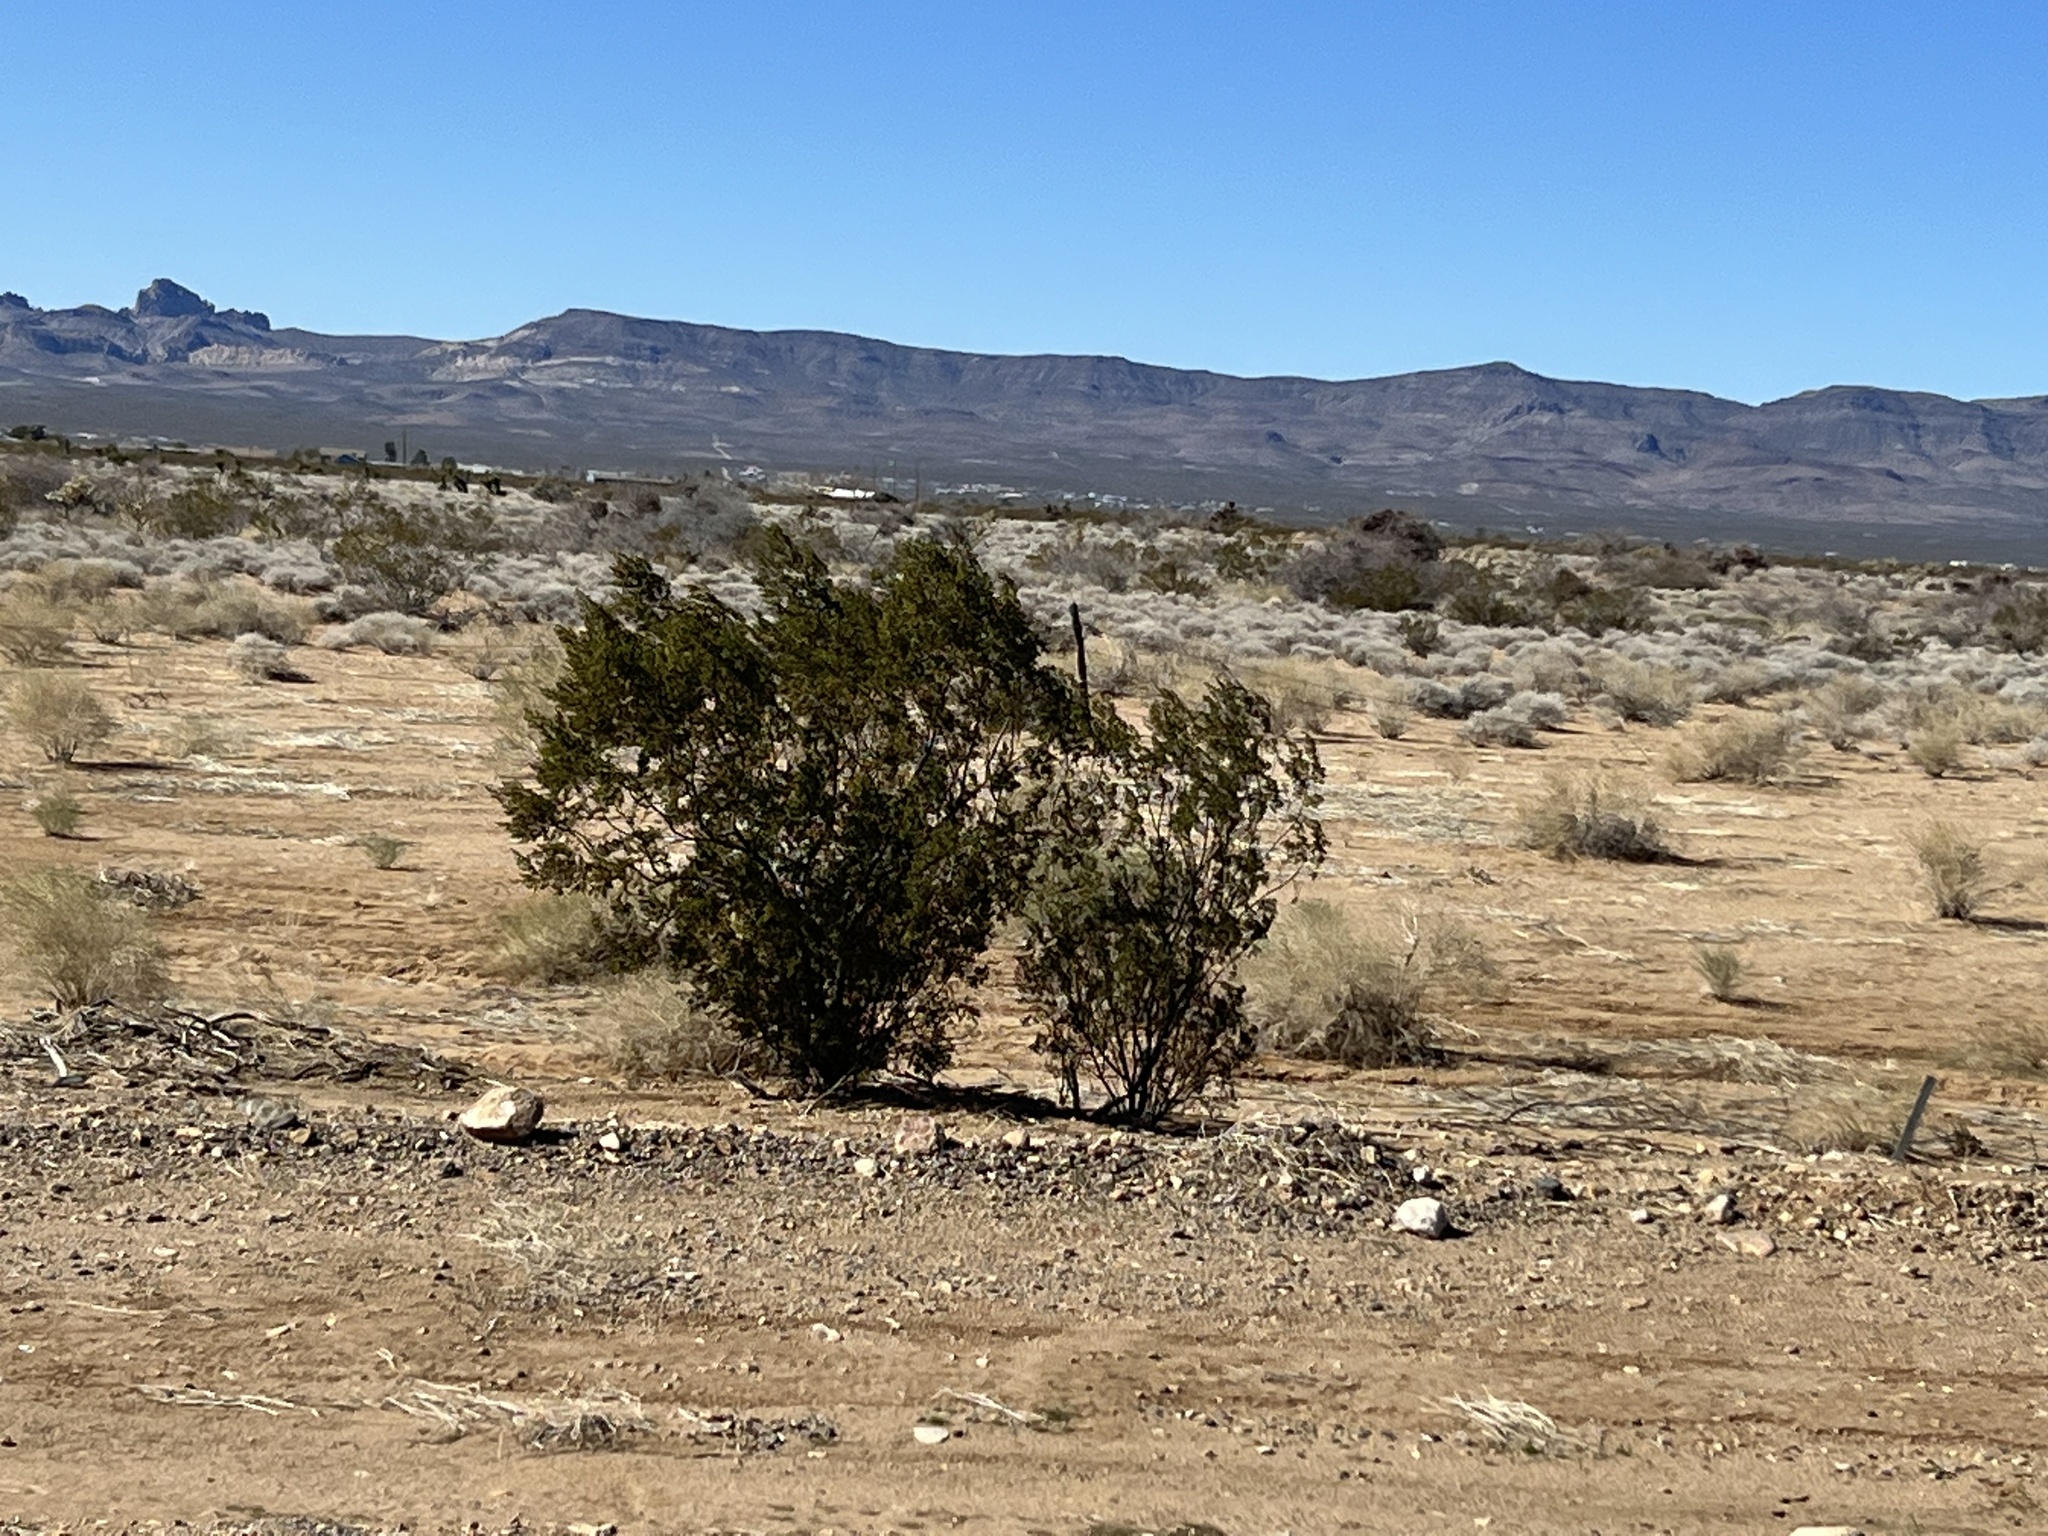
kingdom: Plantae
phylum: Tracheophyta
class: Magnoliopsida
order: Zygophyllales
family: Zygophyllaceae
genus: Larrea
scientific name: Larrea tridentata
